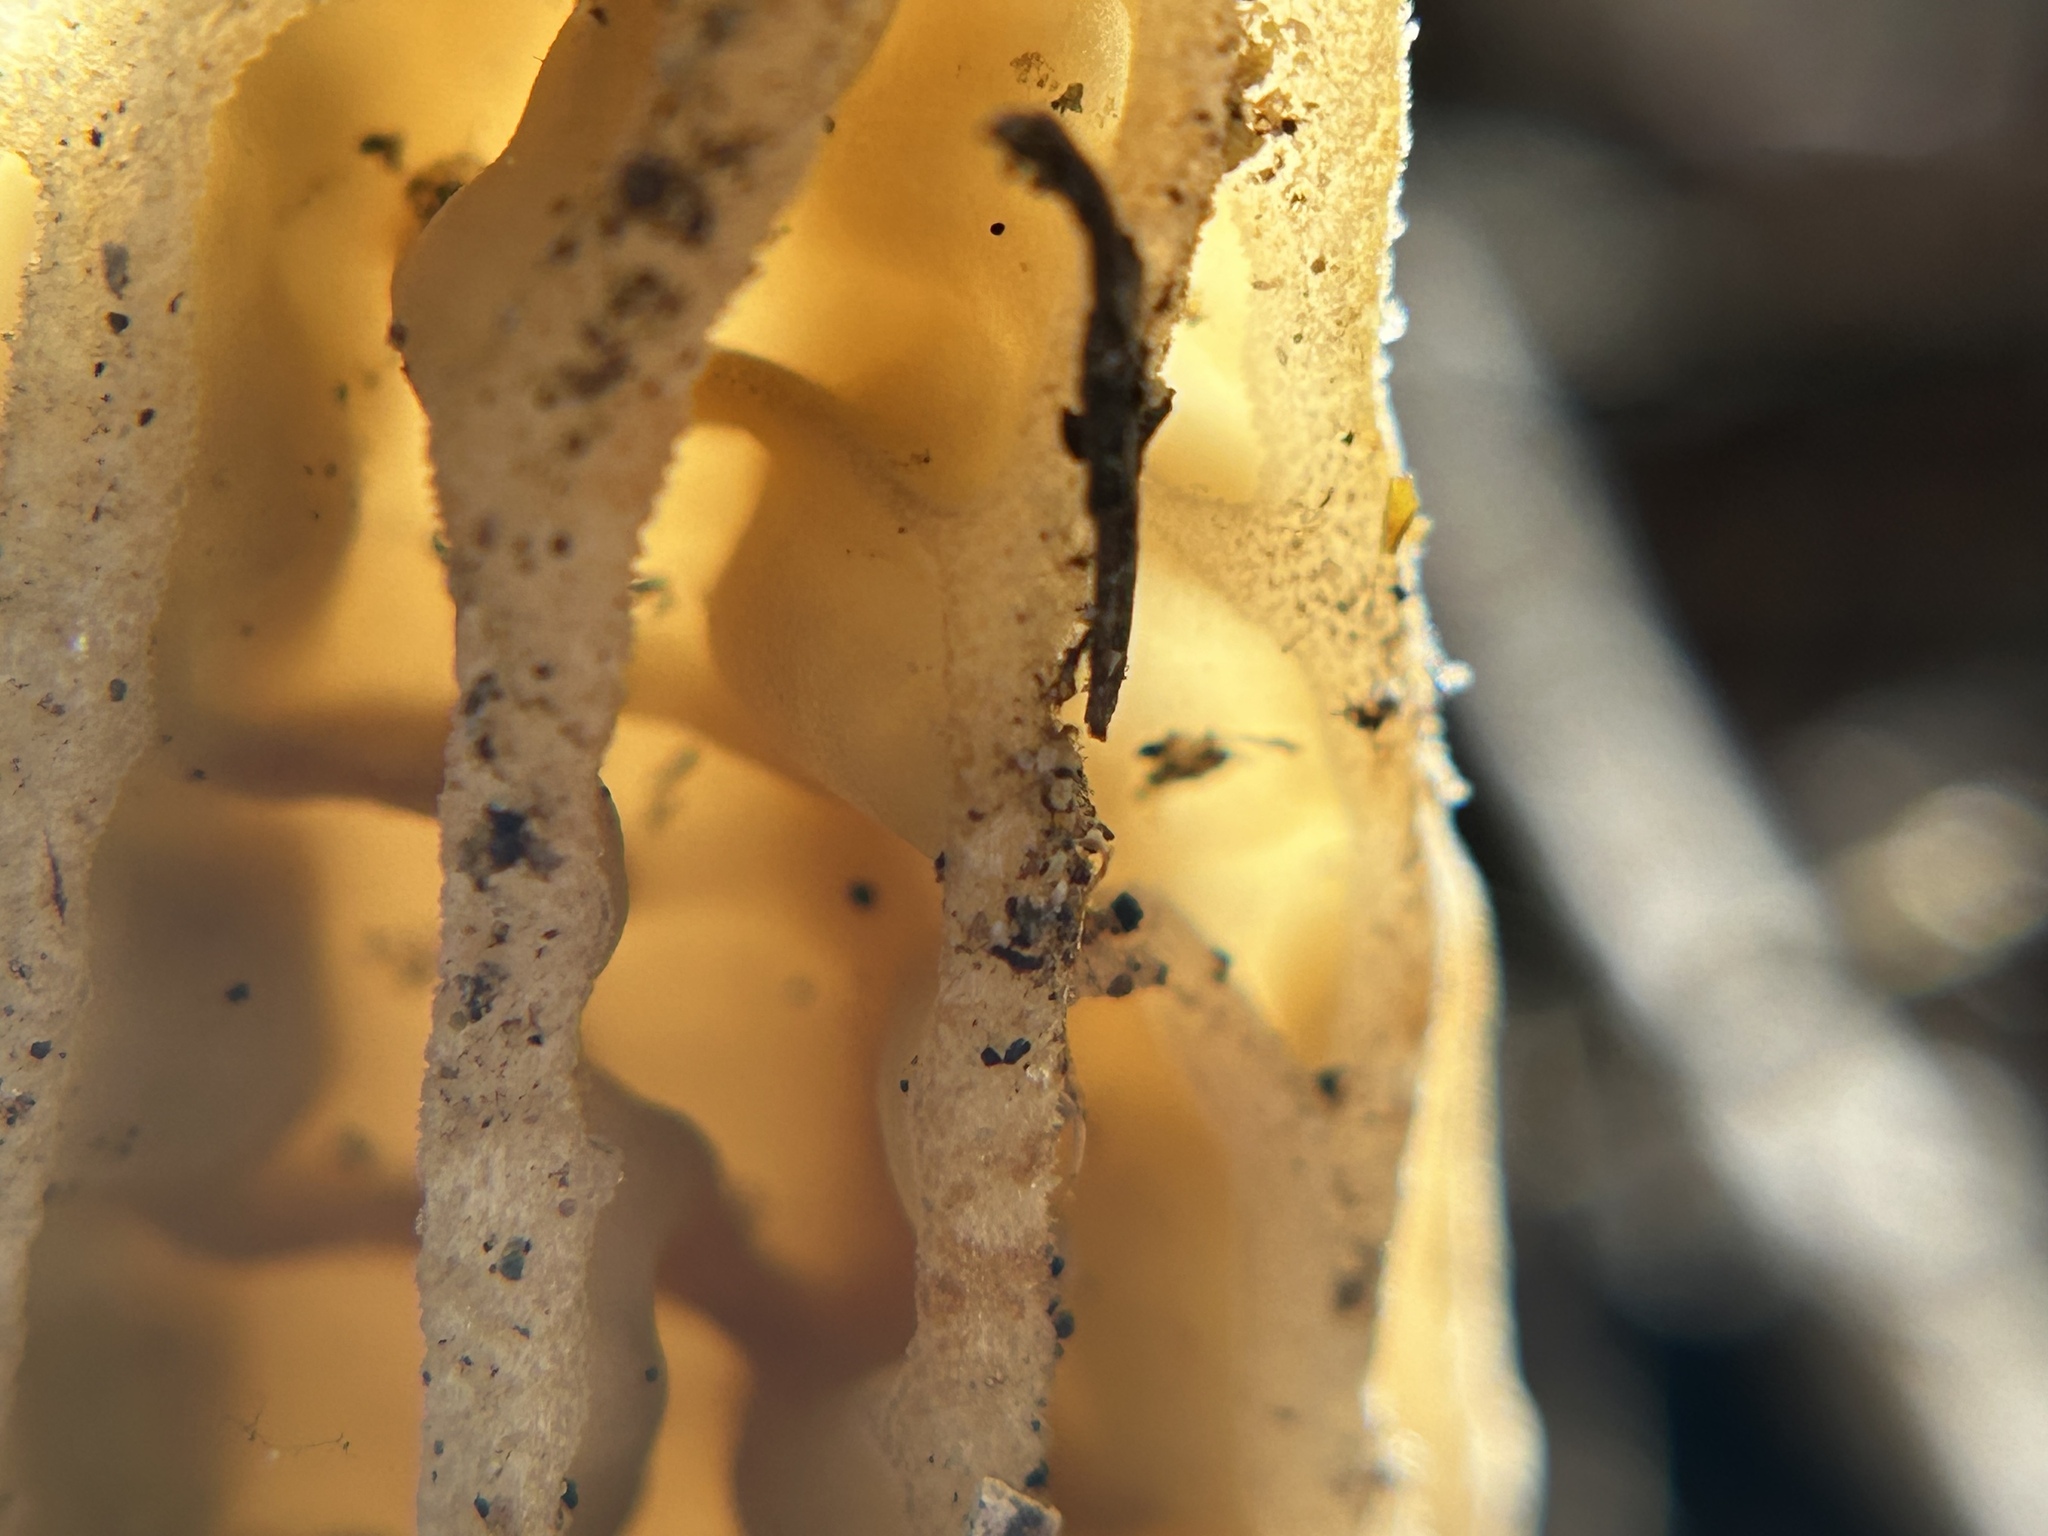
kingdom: Fungi
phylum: Ascomycota
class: Pezizomycetes
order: Pezizales
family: Morchellaceae
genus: Morchella
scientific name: Morchella rufobrunnea
